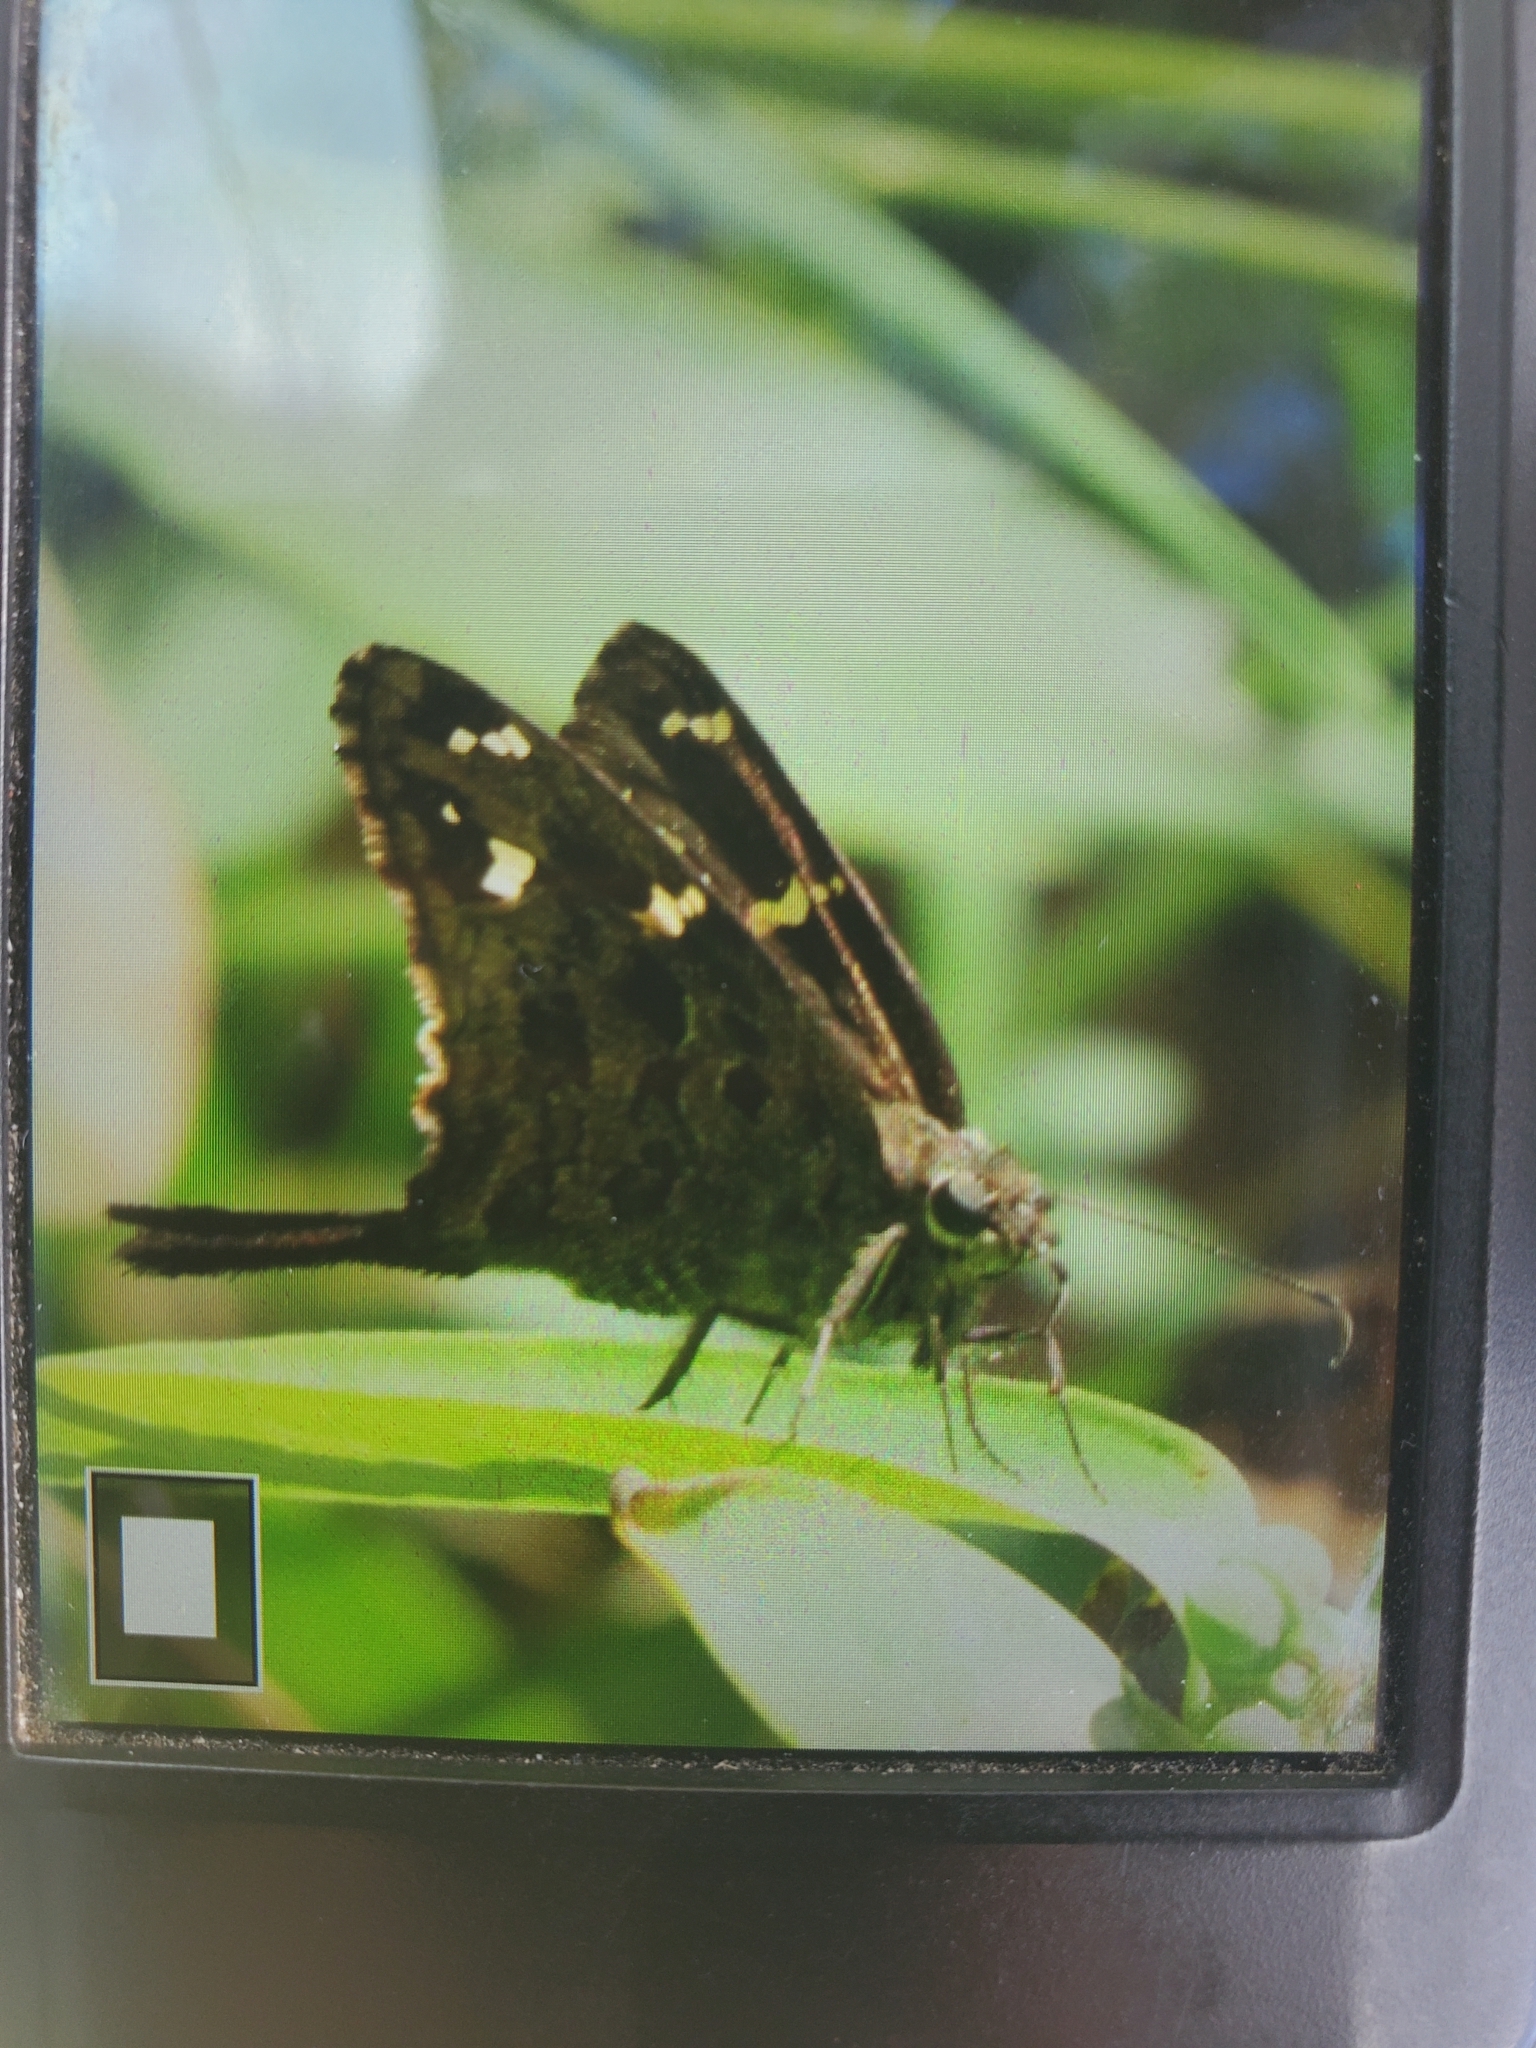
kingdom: Animalia
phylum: Arthropoda
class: Insecta
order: Lepidoptera
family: Hesperiidae
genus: Thorybes
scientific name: Thorybes
